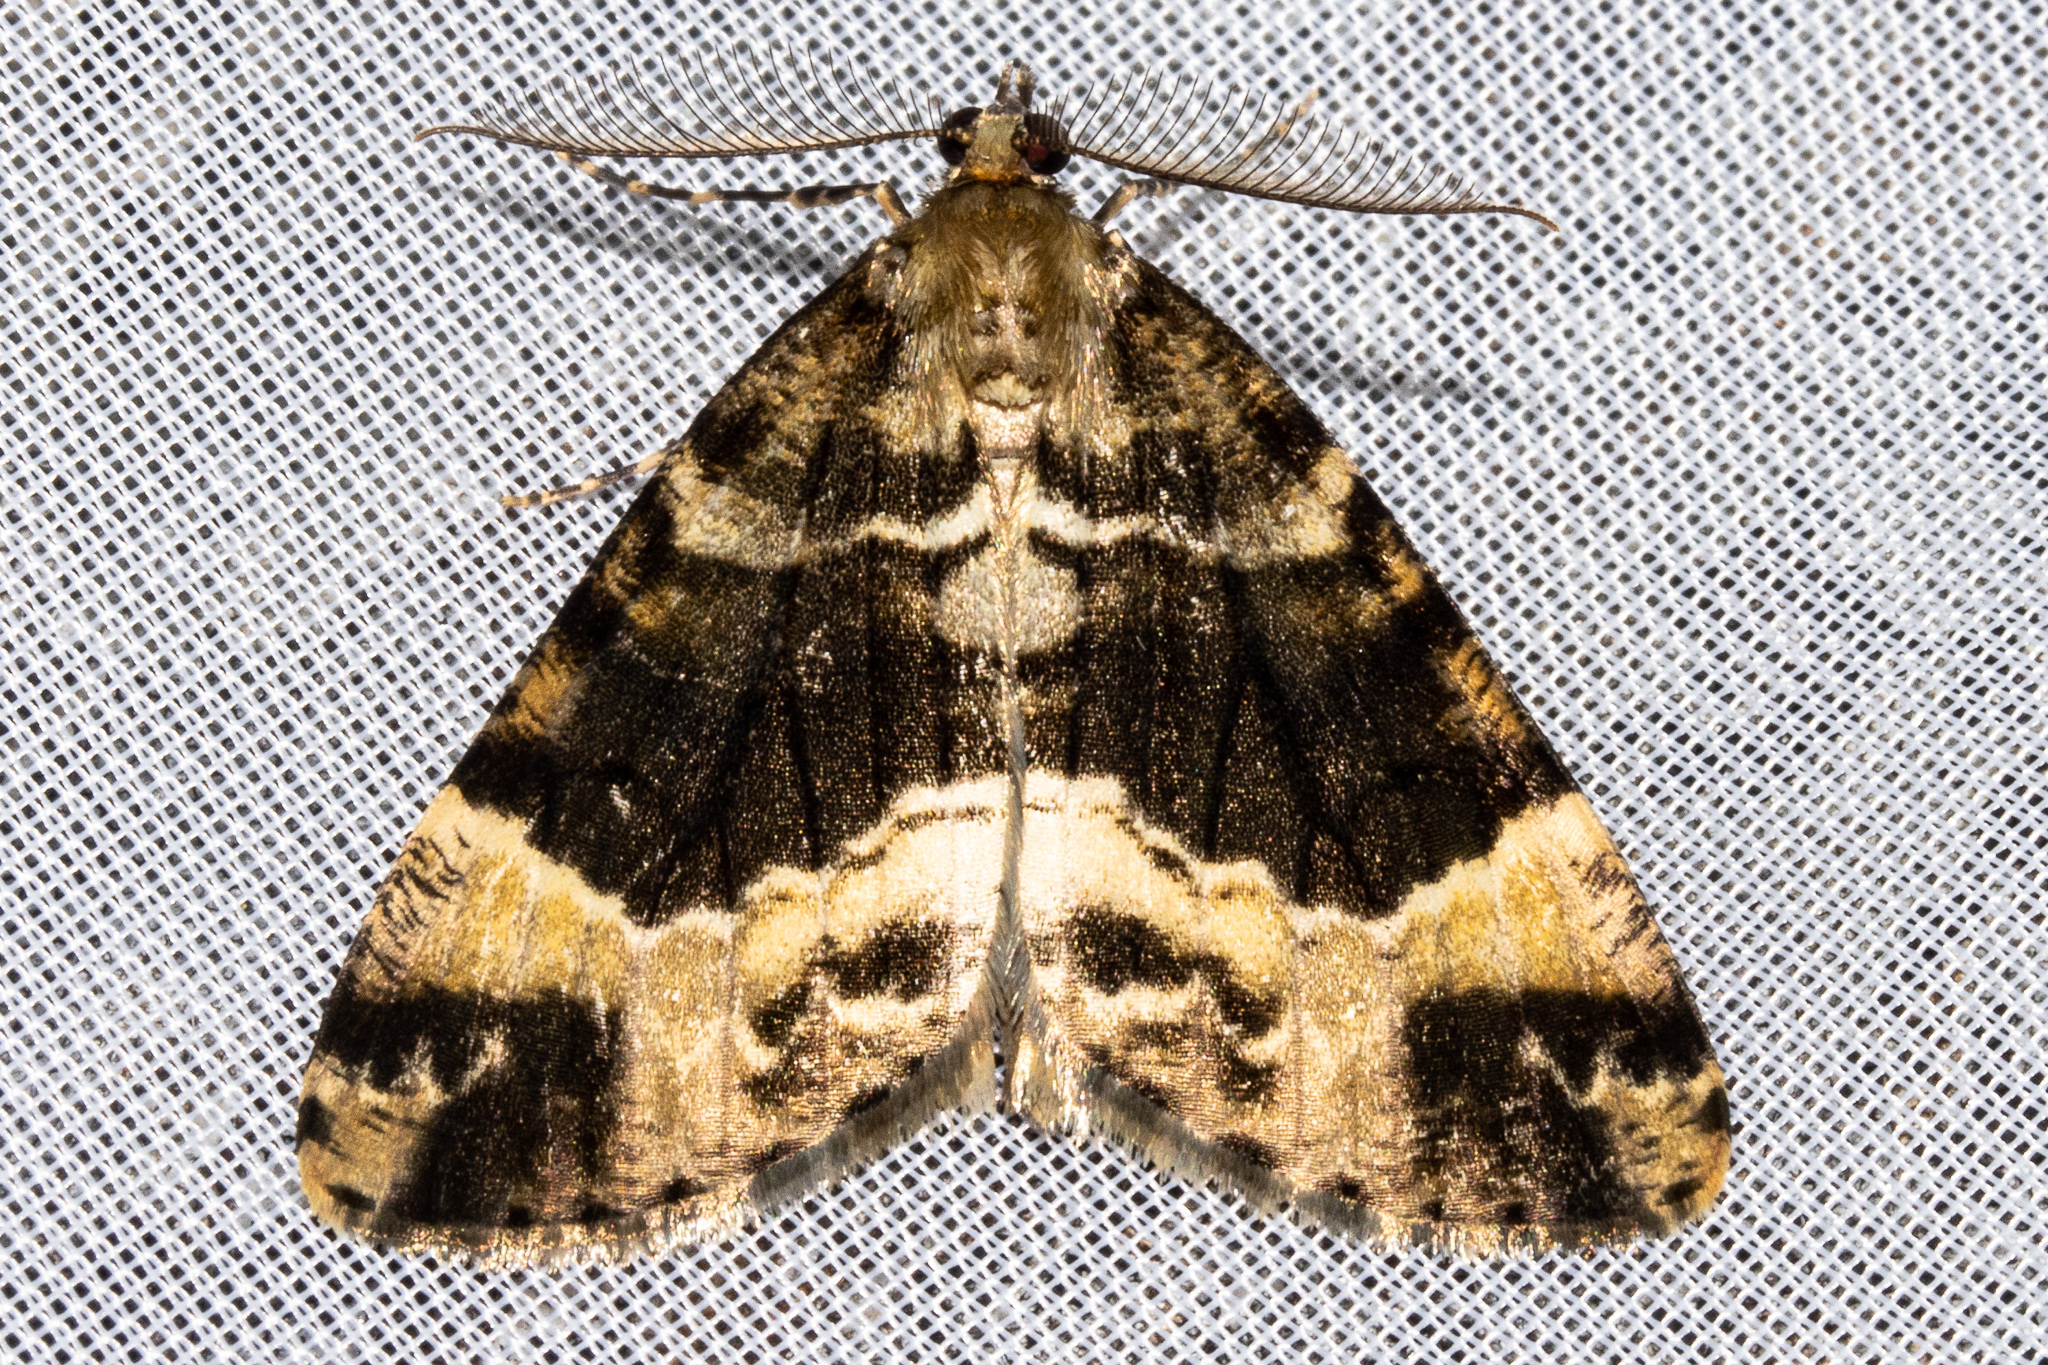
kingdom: Animalia
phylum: Arthropoda
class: Insecta
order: Lepidoptera
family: Geometridae
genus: Pseudocoremia
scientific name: Pseudocoremia productata
